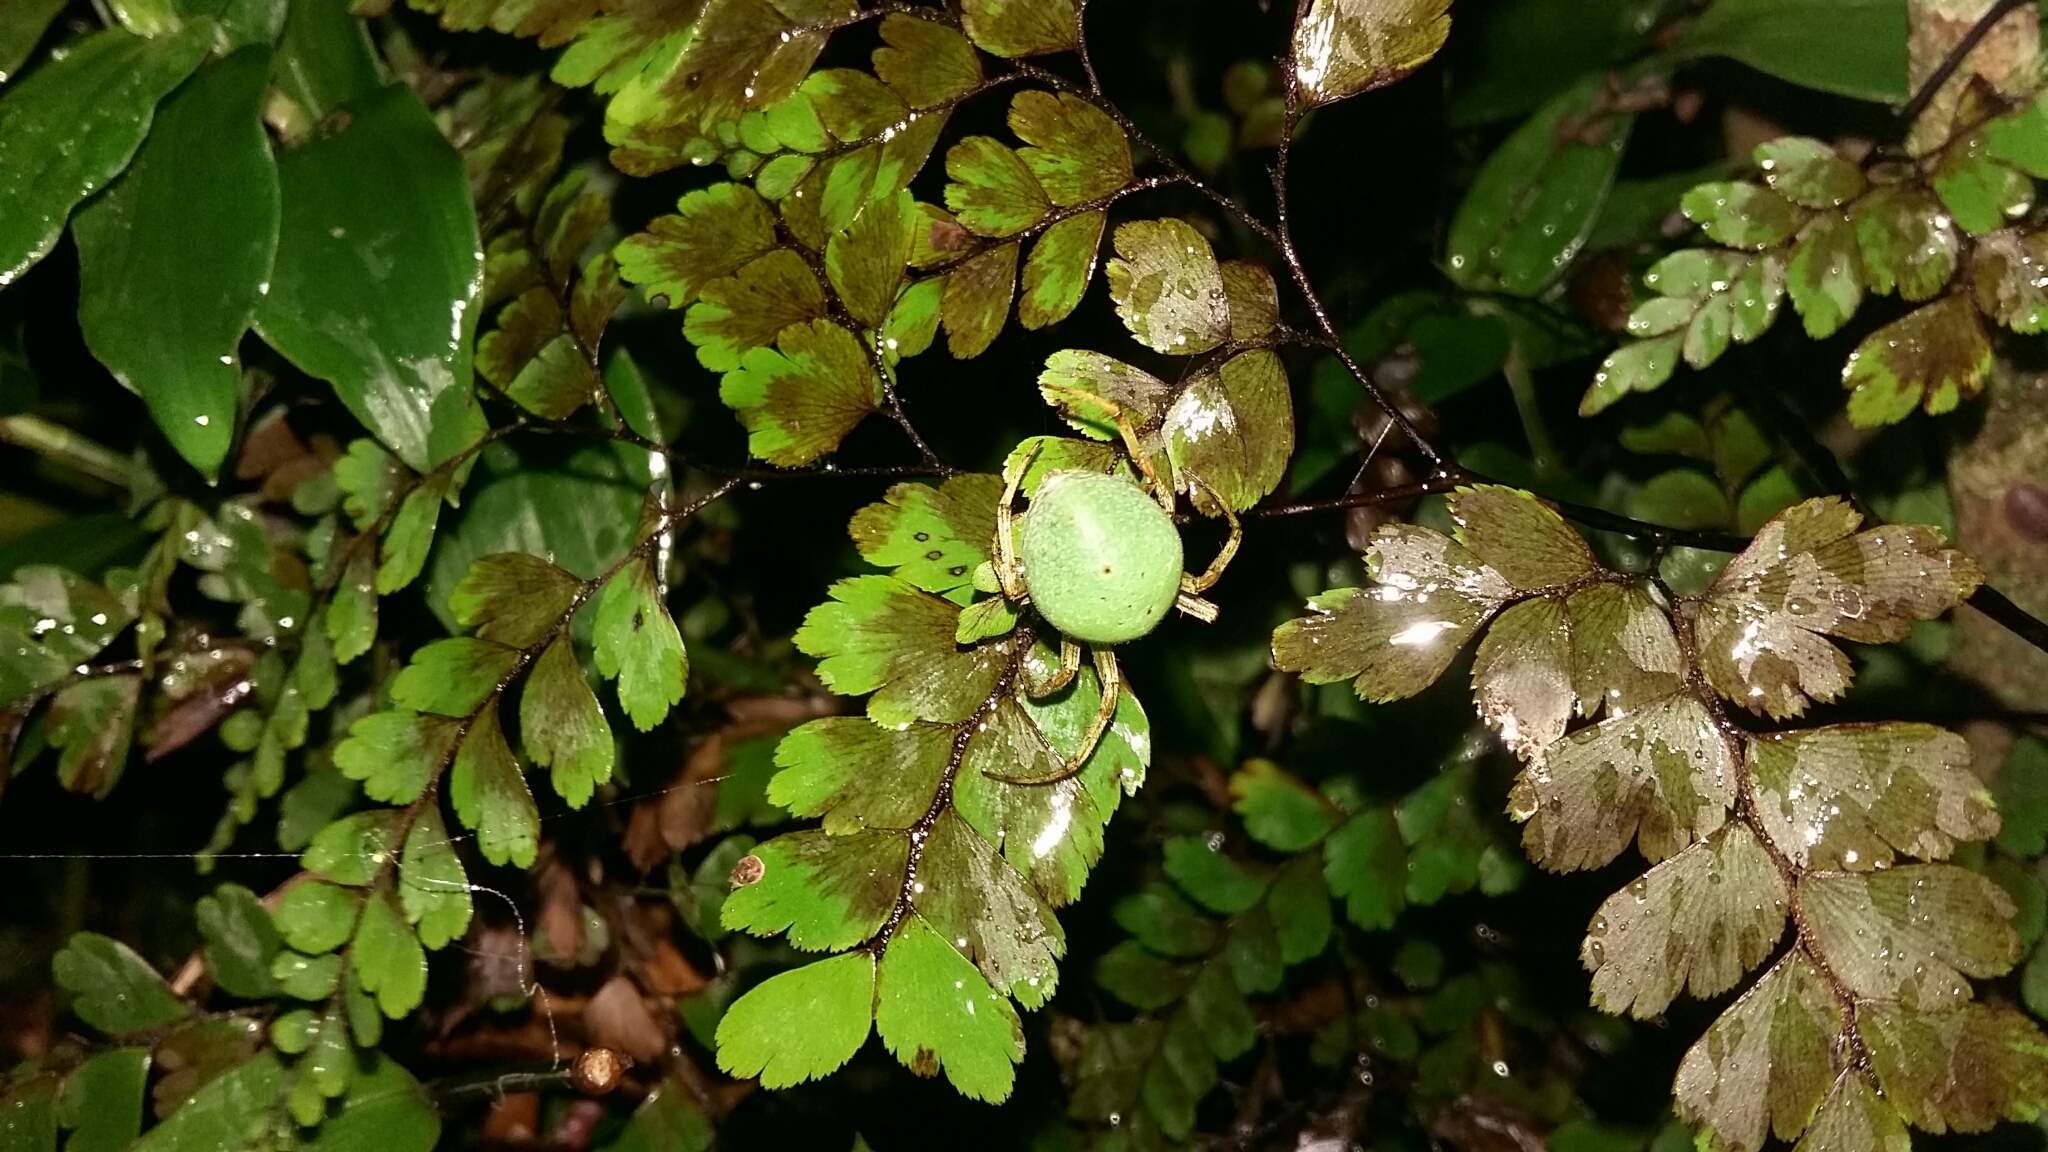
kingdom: Animalia
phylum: Arthropoda
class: Arachnida
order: Araneae
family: Araneidae
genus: Colaranea
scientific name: Colaranea viriditas
